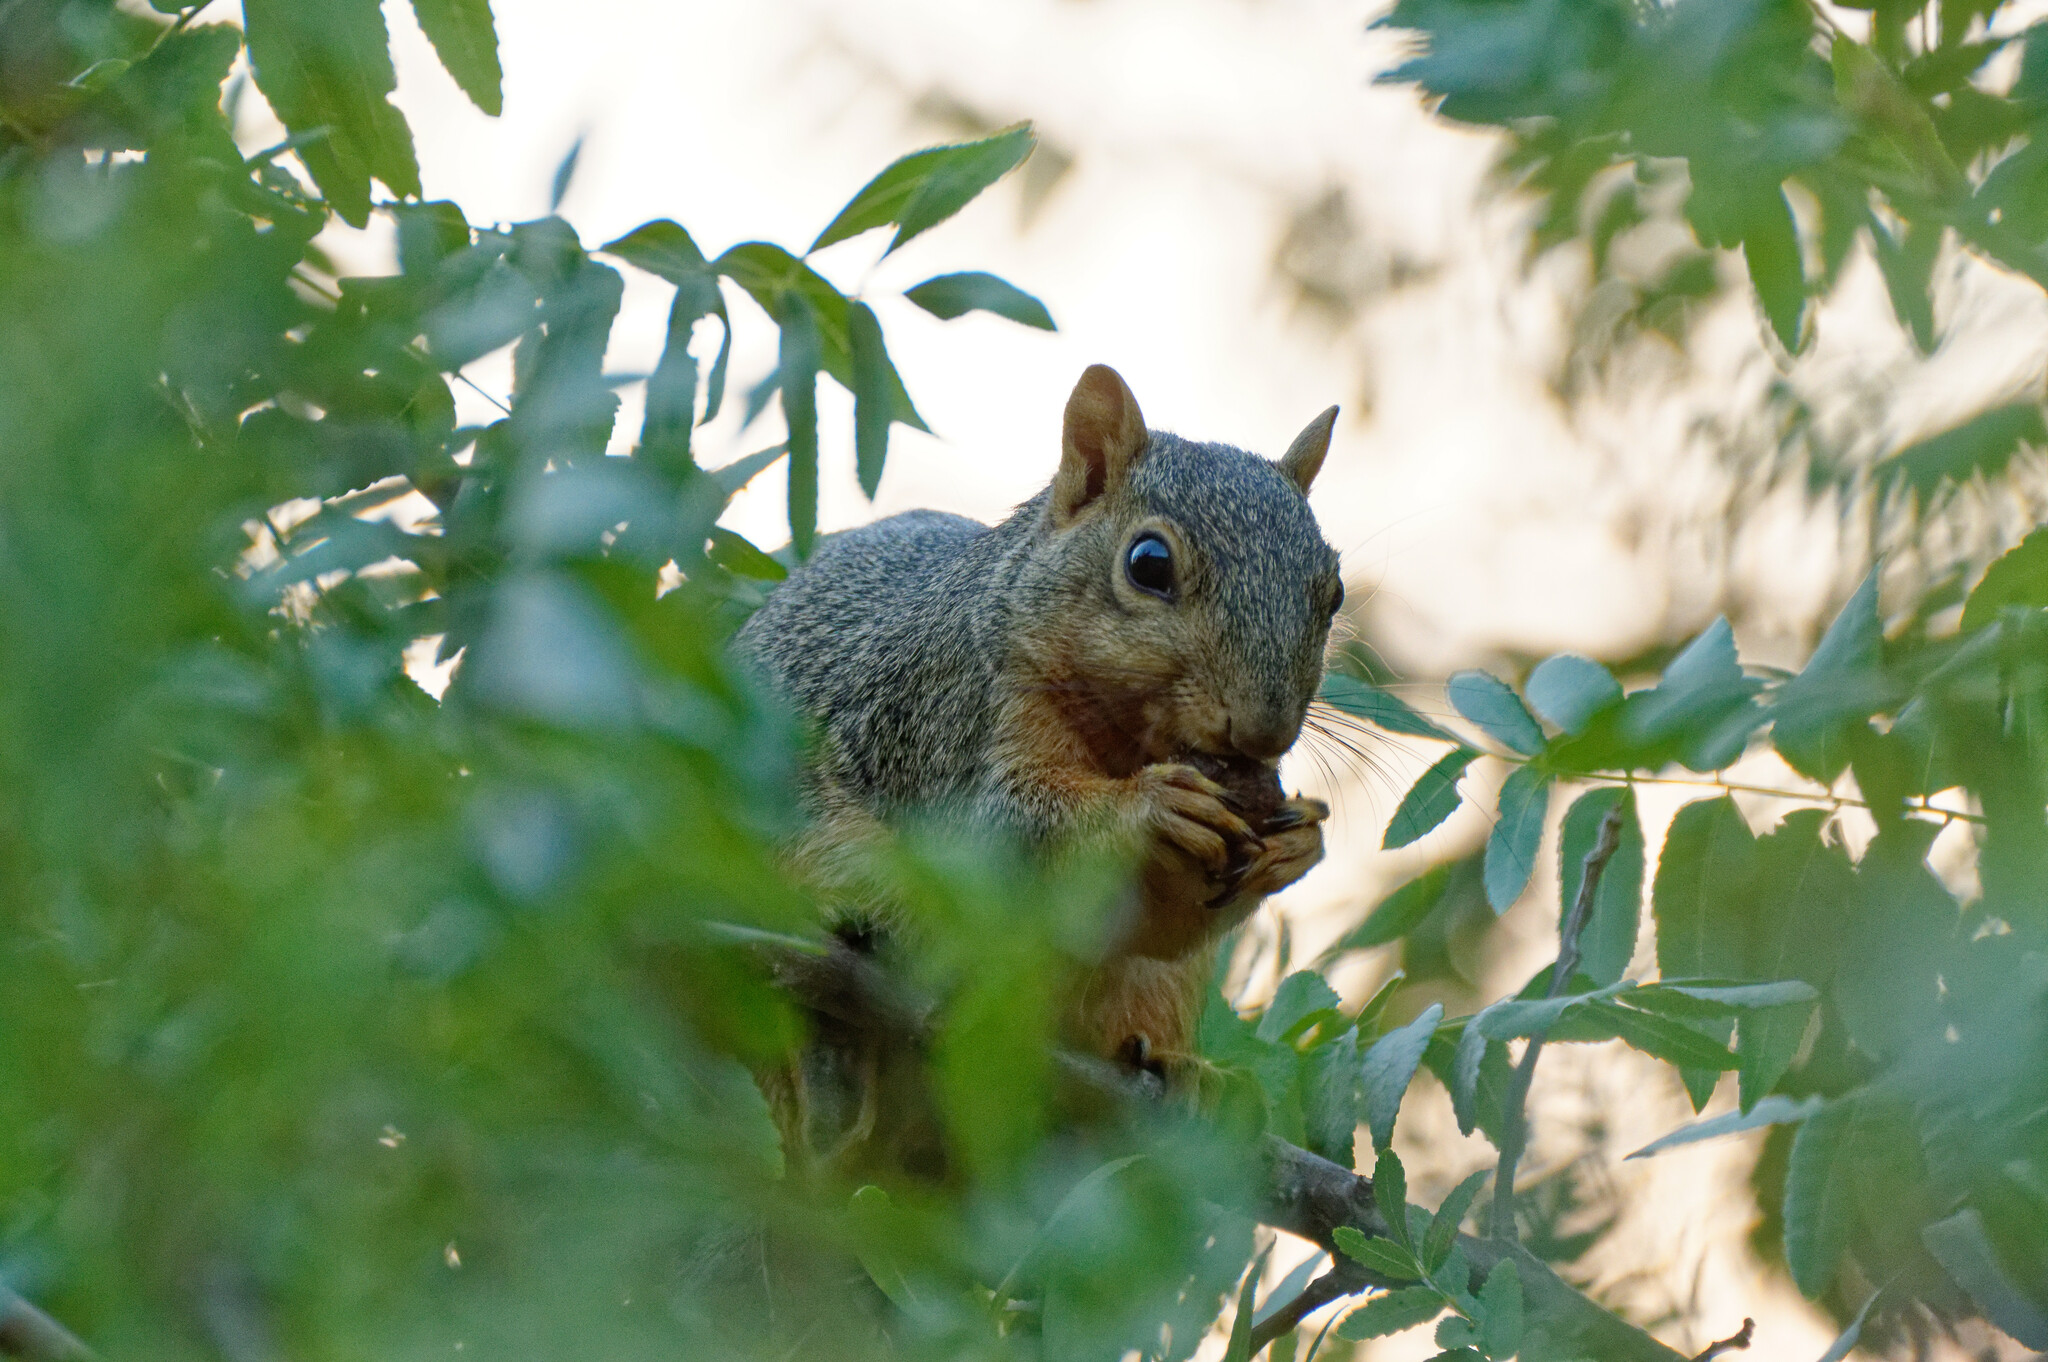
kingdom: Animalia
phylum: Chordata
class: Mammalia
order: Rodentia
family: Sciuridae
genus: Sciurus
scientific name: Sciurus niger
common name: Fox squirrel
